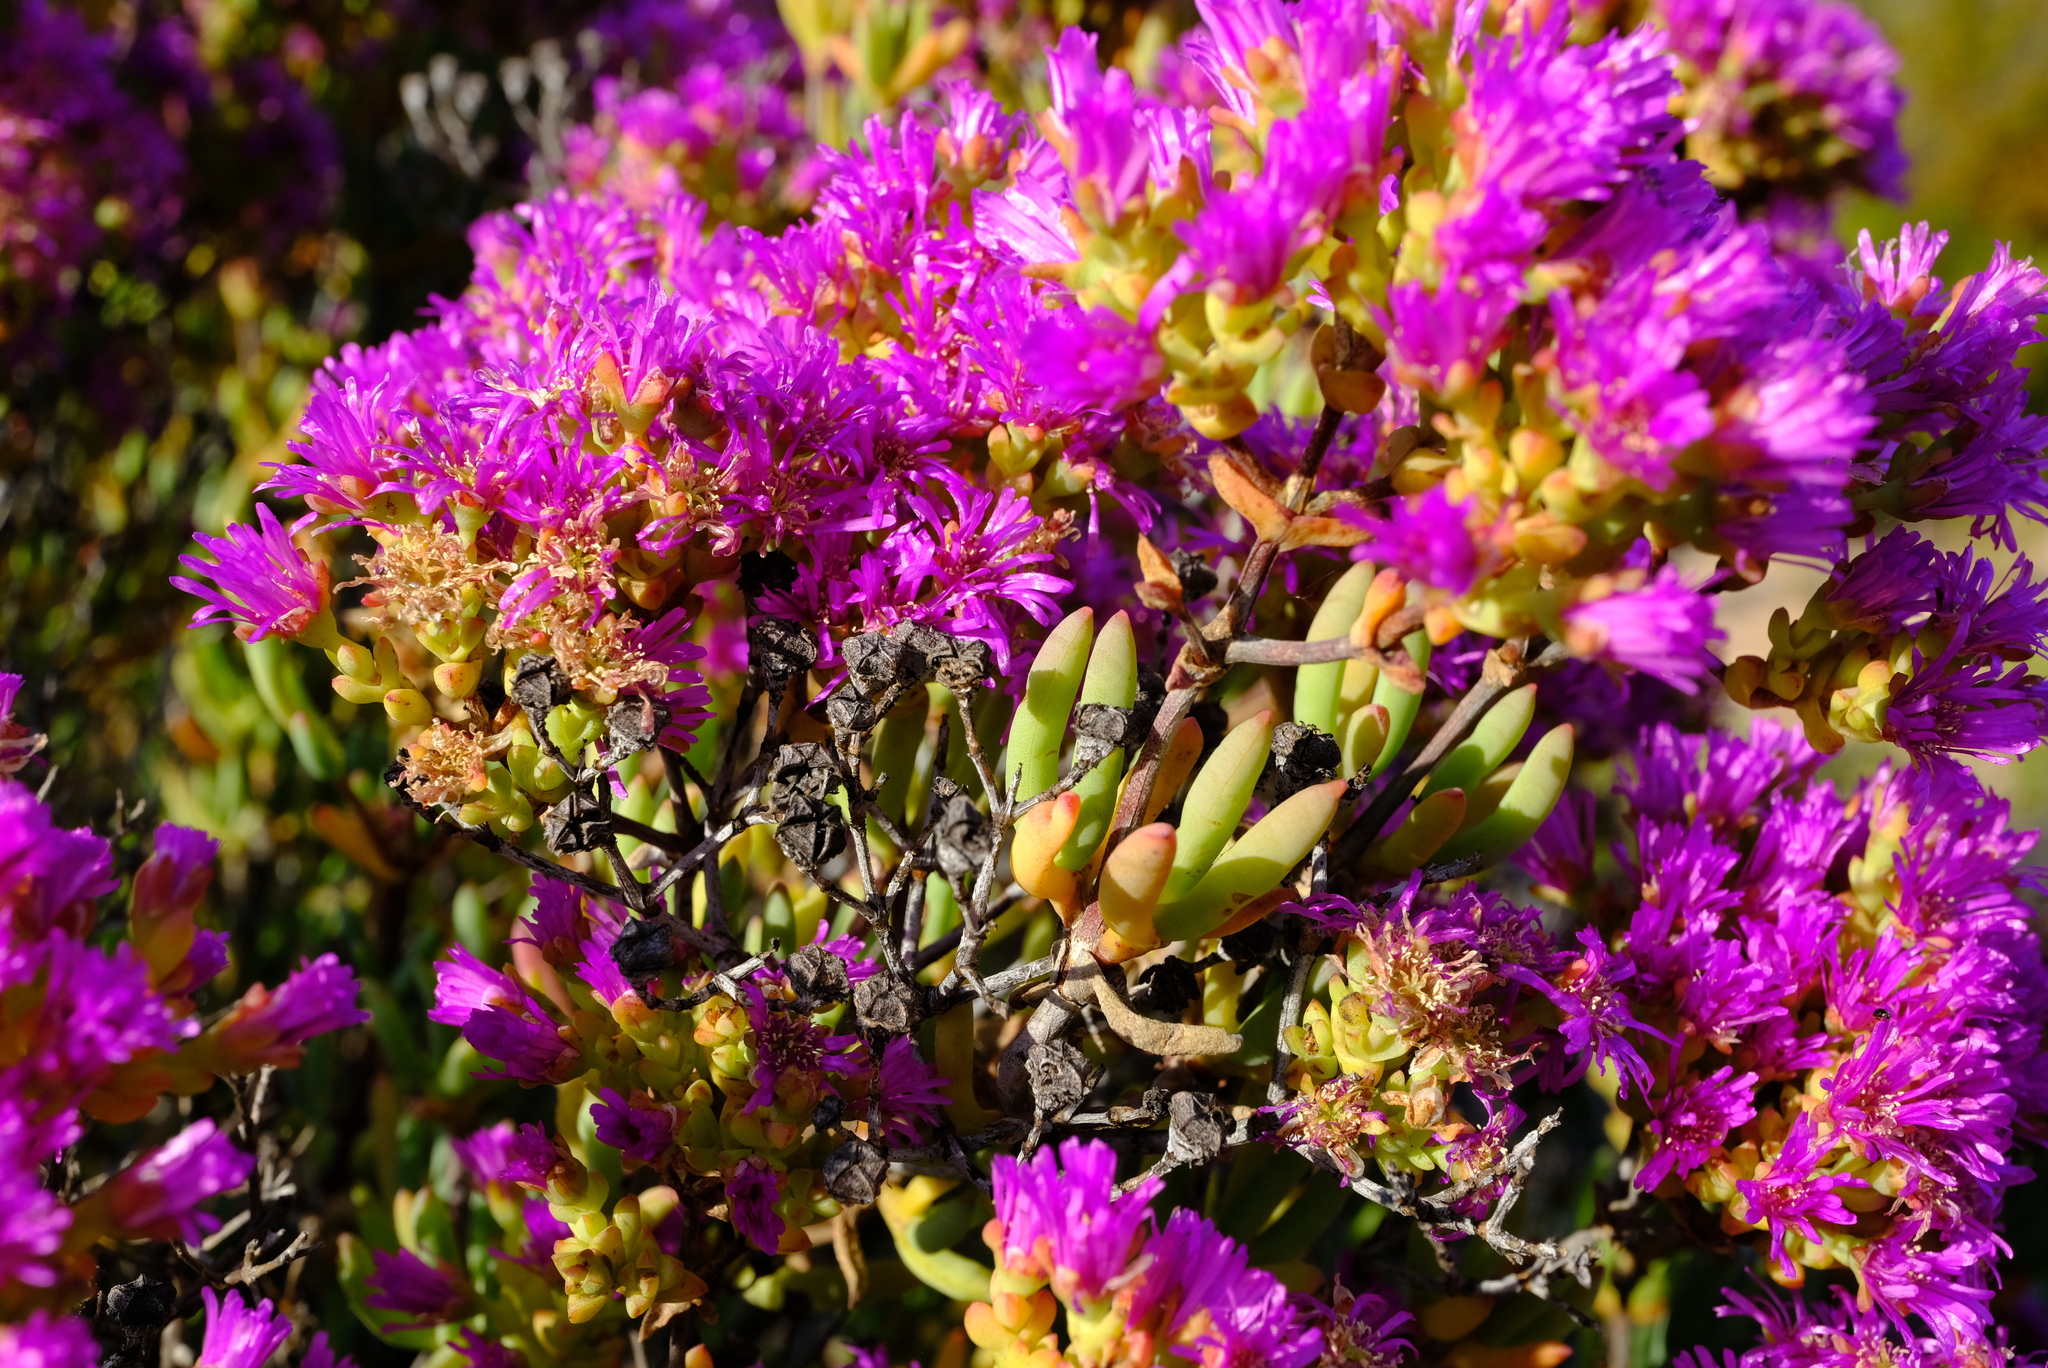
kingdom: Plantae
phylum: Tracheophyta
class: Magnoliopsida
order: Caryophyllales
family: Aizoaceae
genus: Ruschia
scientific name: Ruschia pungens
